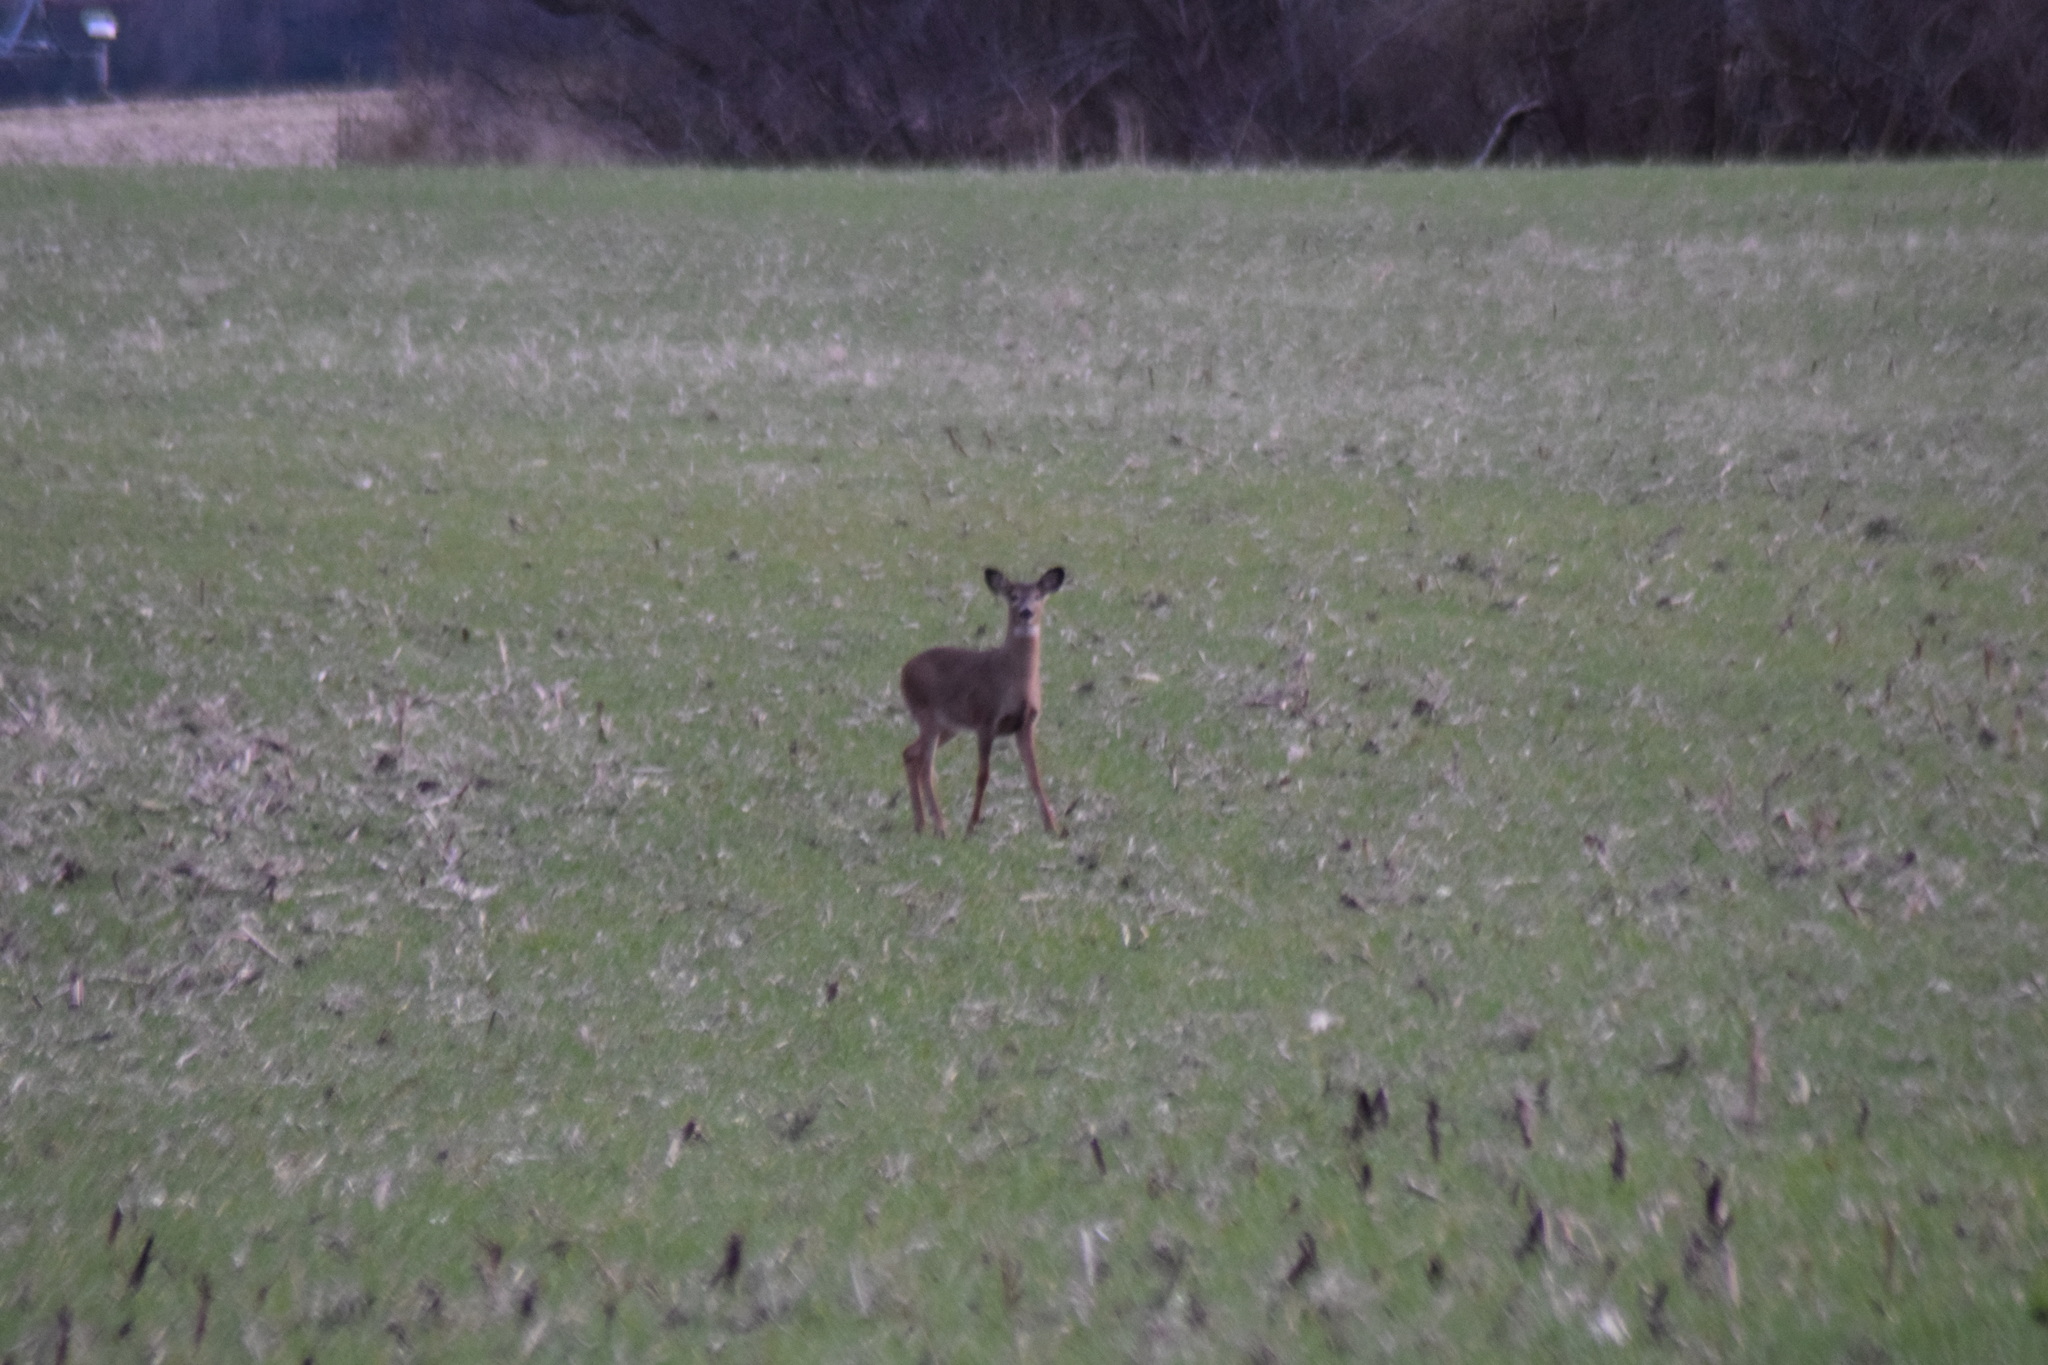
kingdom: Animalia
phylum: Chordata
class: Mammalia
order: Artiodactyla
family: Cervidae
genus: Odocoileus
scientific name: Odocoileus virginianus
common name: White-tailed deer
